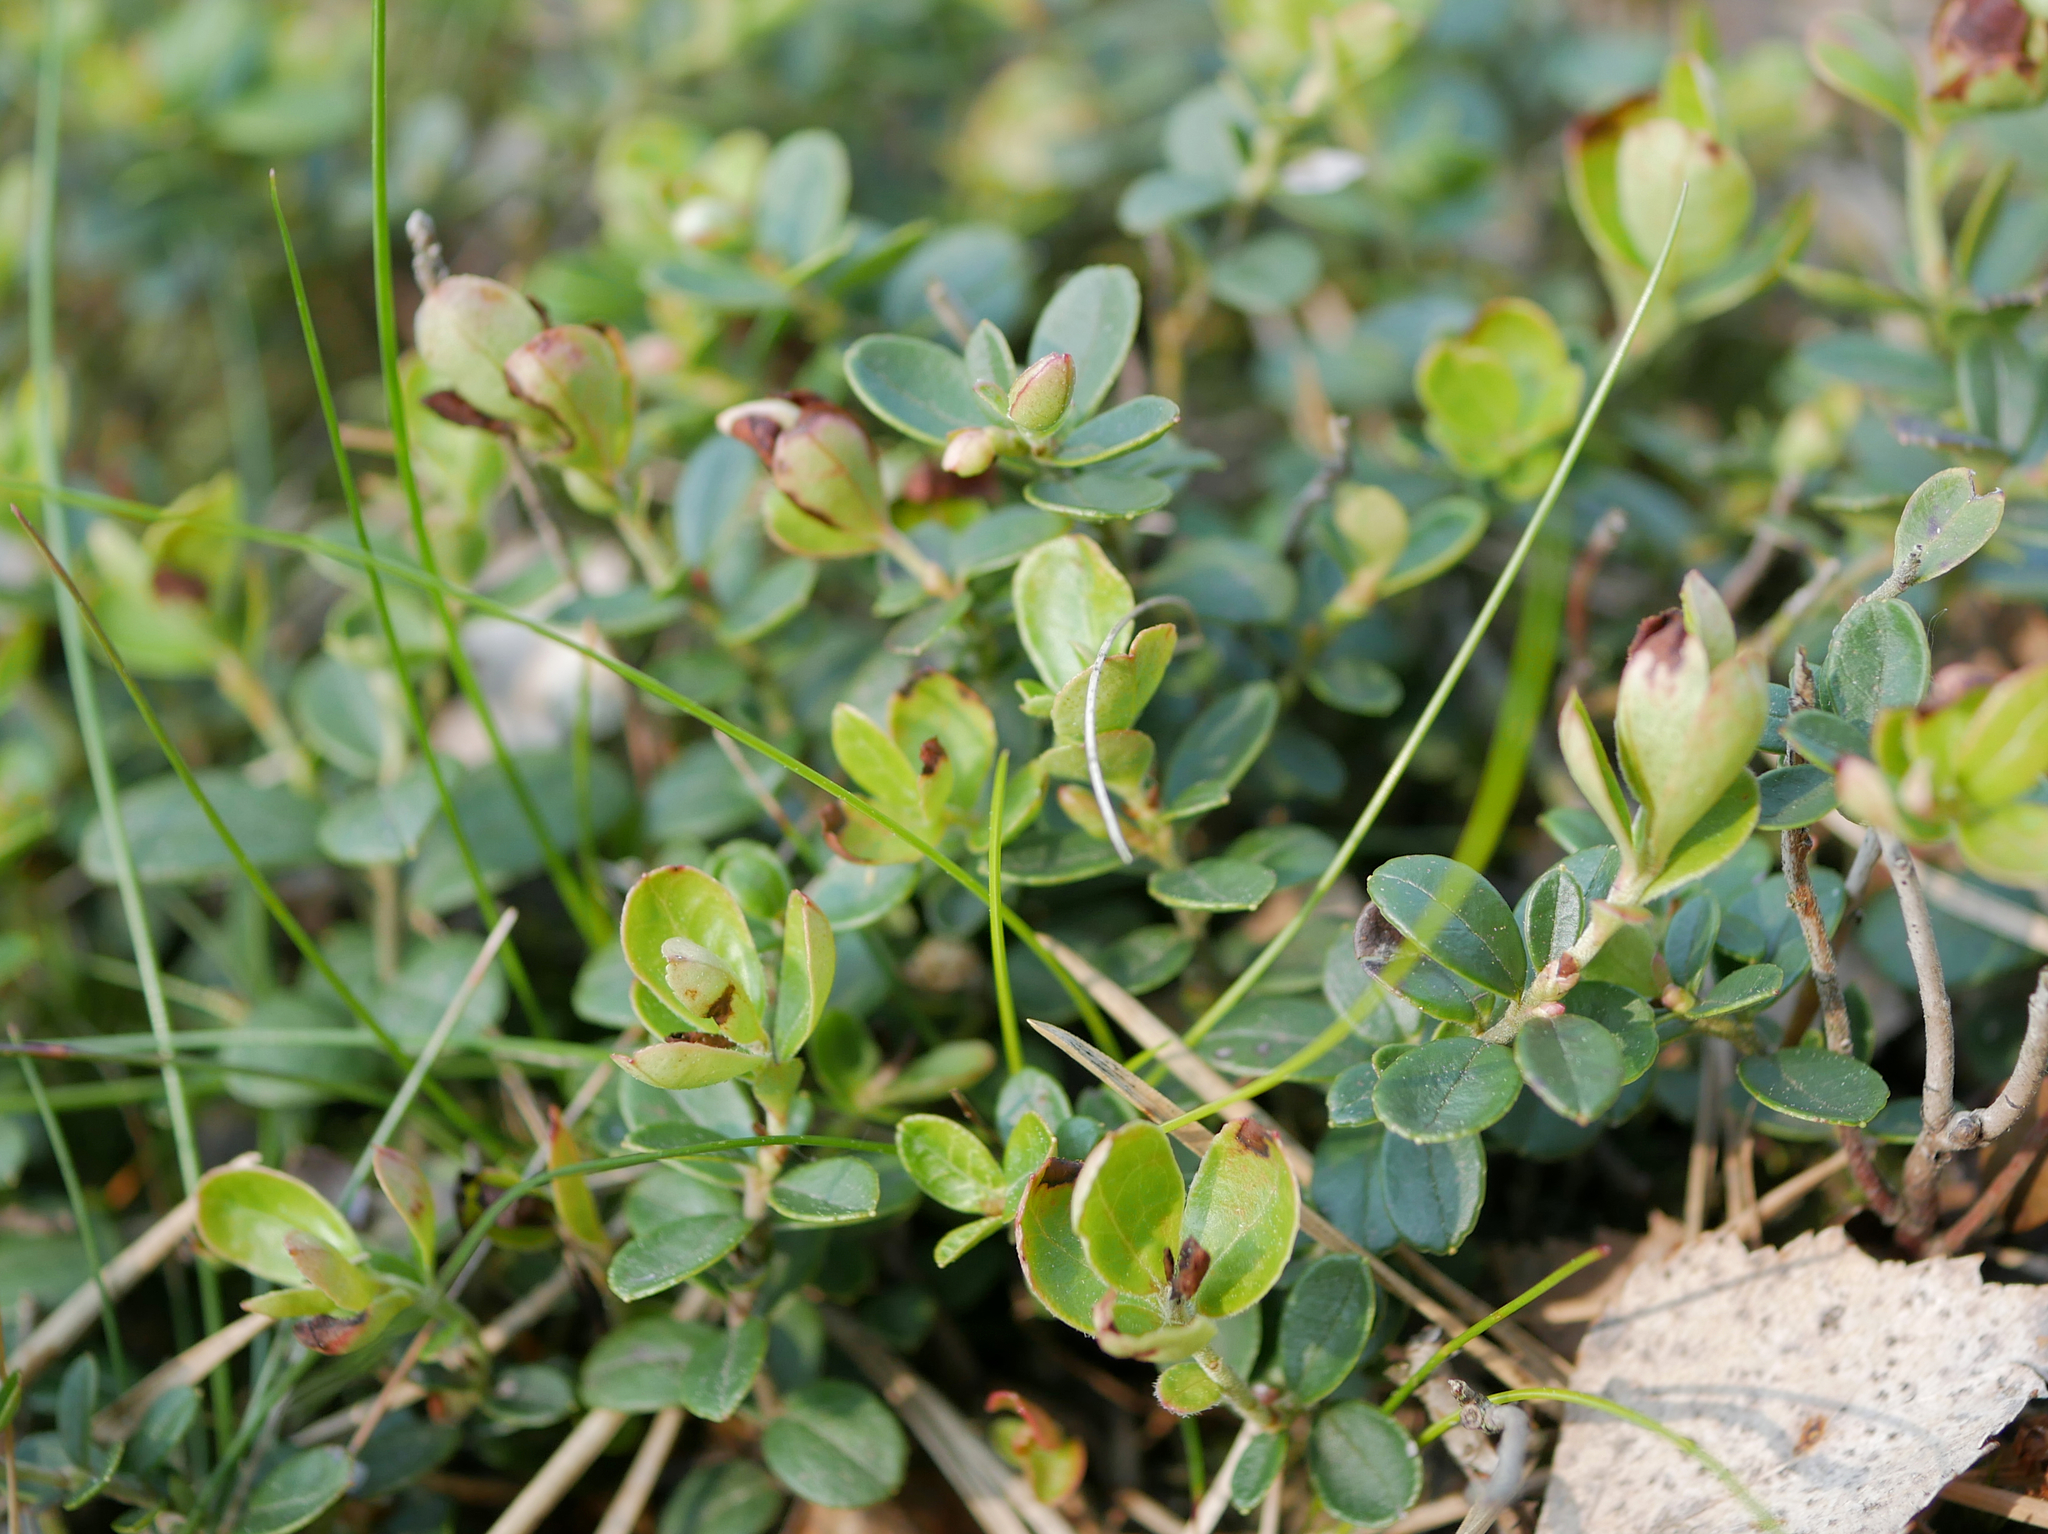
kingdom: Plantae
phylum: Tracheophyta
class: Magnoliopsida
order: Ericales
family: Ericaceae
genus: Vaccinium
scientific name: Vaccinium vitis-idaea
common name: Cowberry
